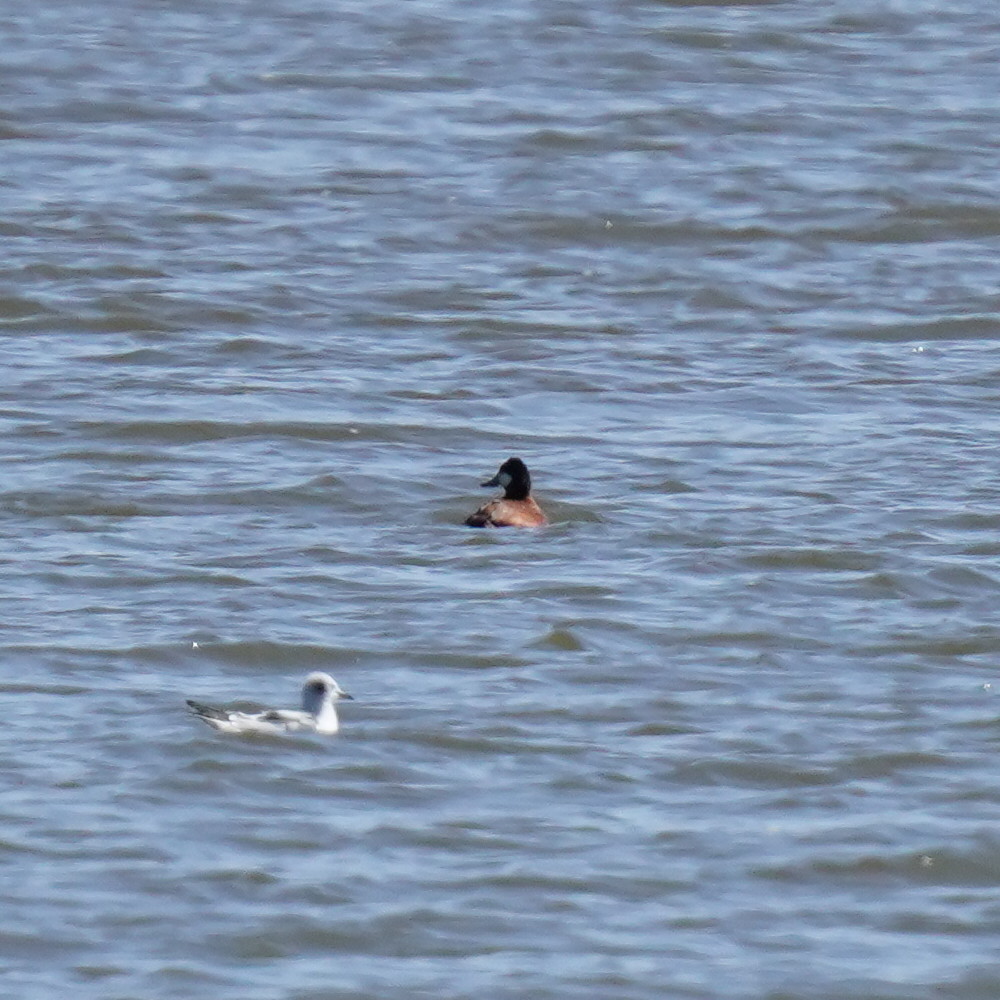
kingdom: Animalia
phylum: Chordata
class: Aves
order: Anseriformes
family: Anatidae
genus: Oxyura
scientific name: Oxyura jamaicensis
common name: Ruddy duck
